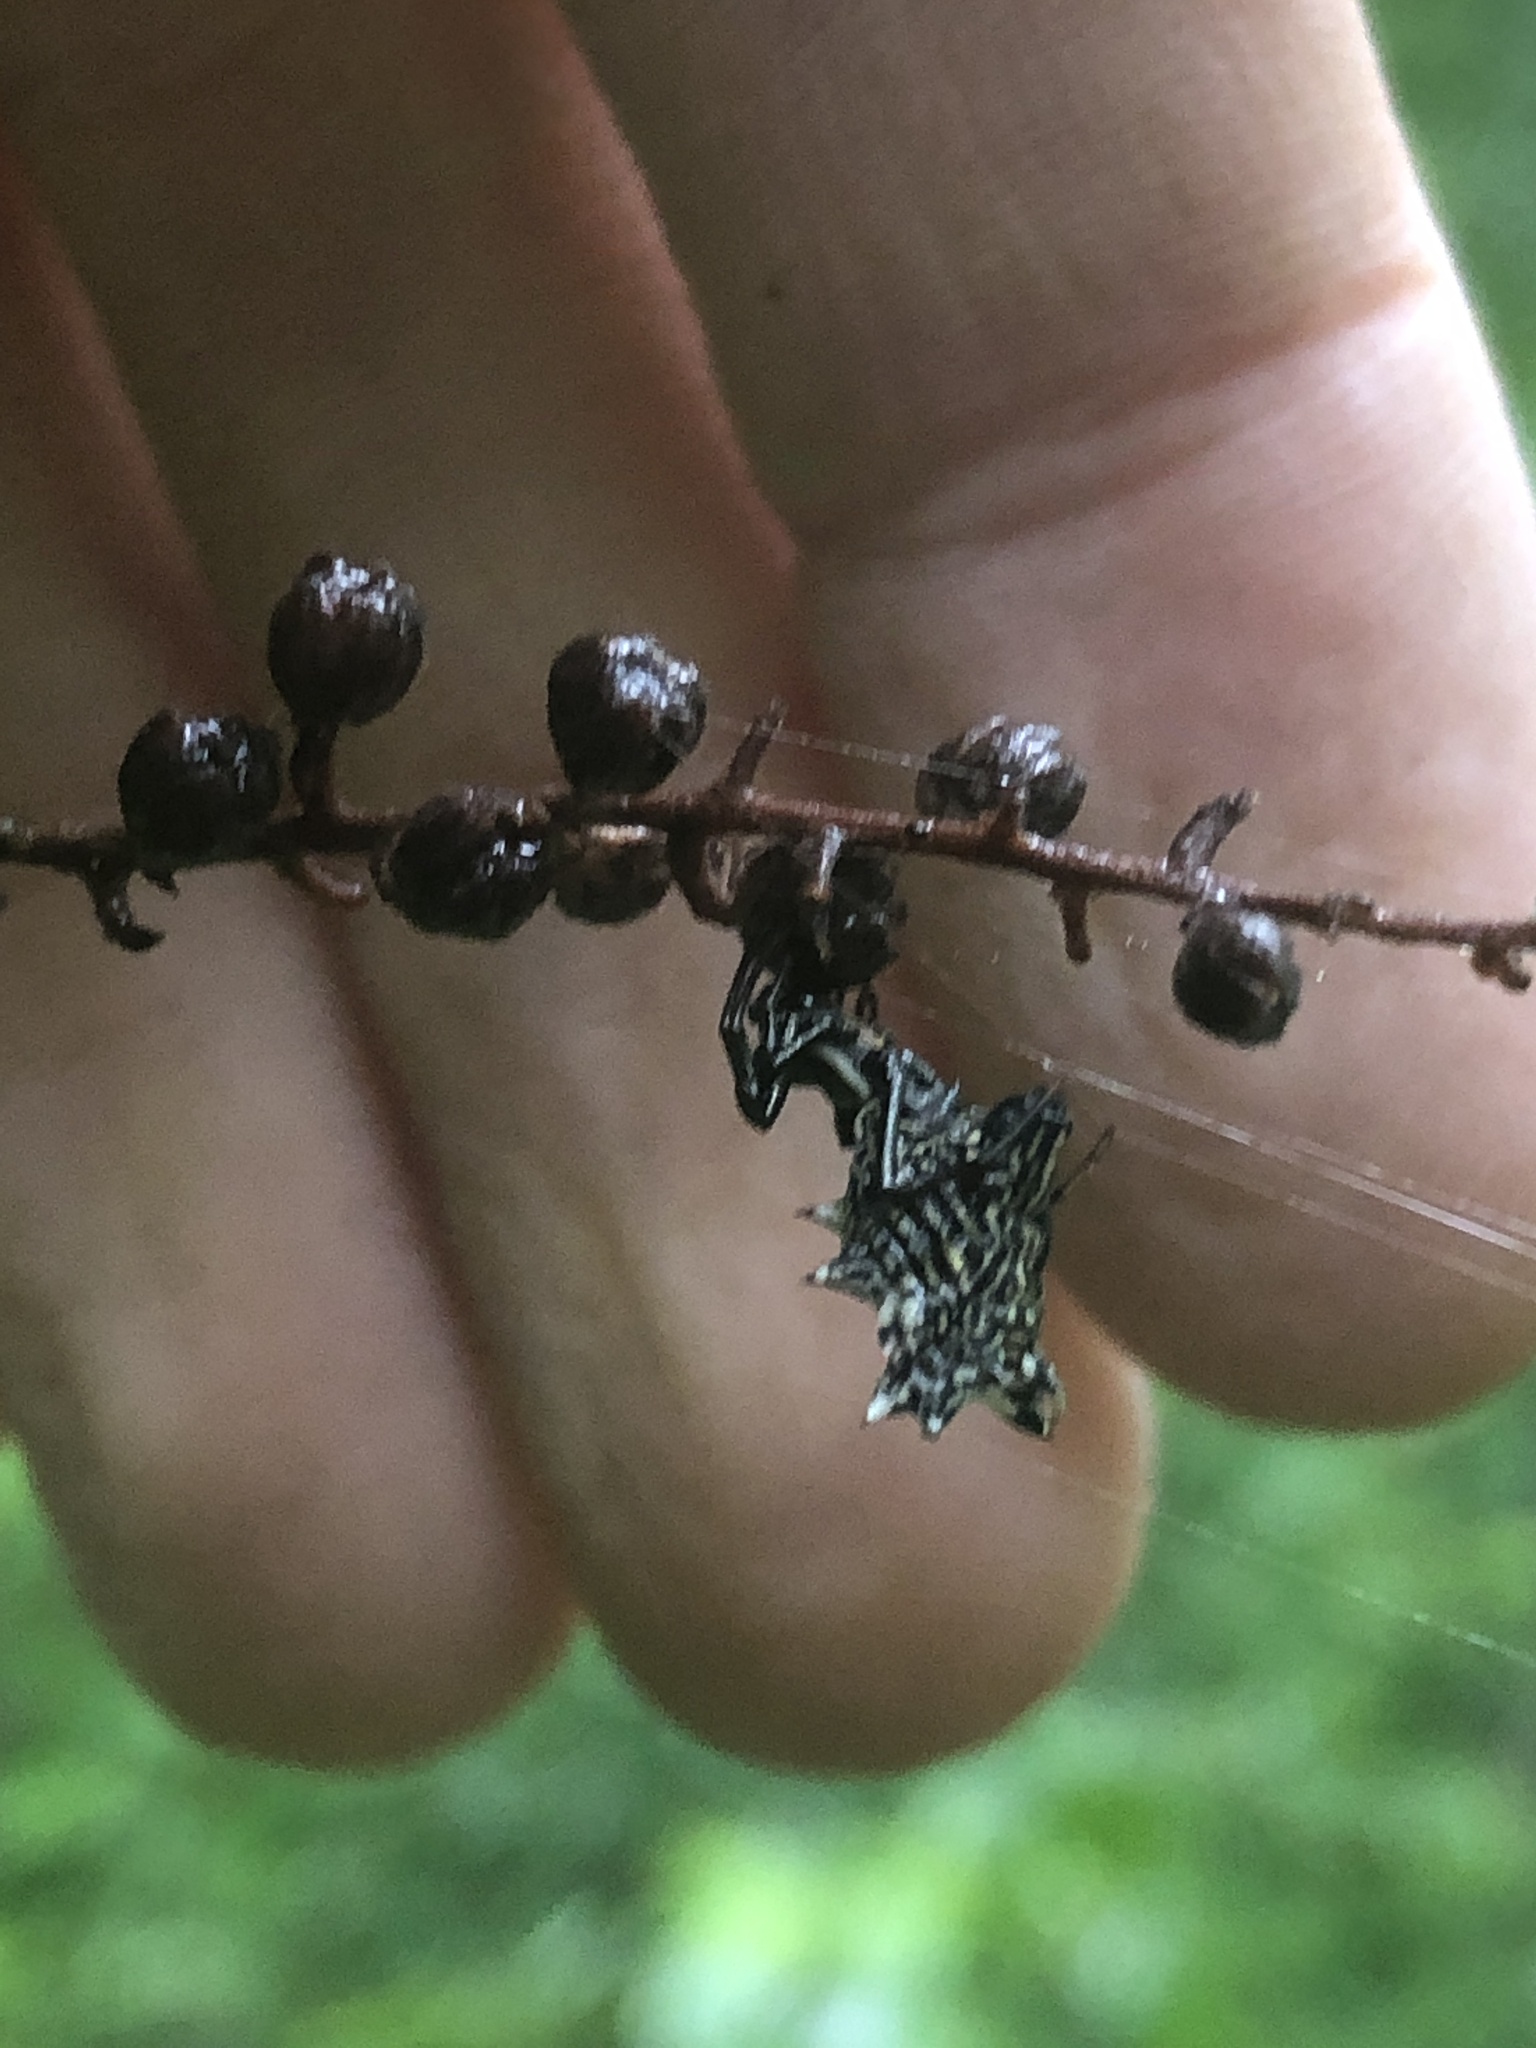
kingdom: Animalia
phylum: Arthropoda
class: Arachnida
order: Araneae
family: Araneidae
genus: Micrathena
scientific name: Micrathena gracilis
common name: Orb weavers
